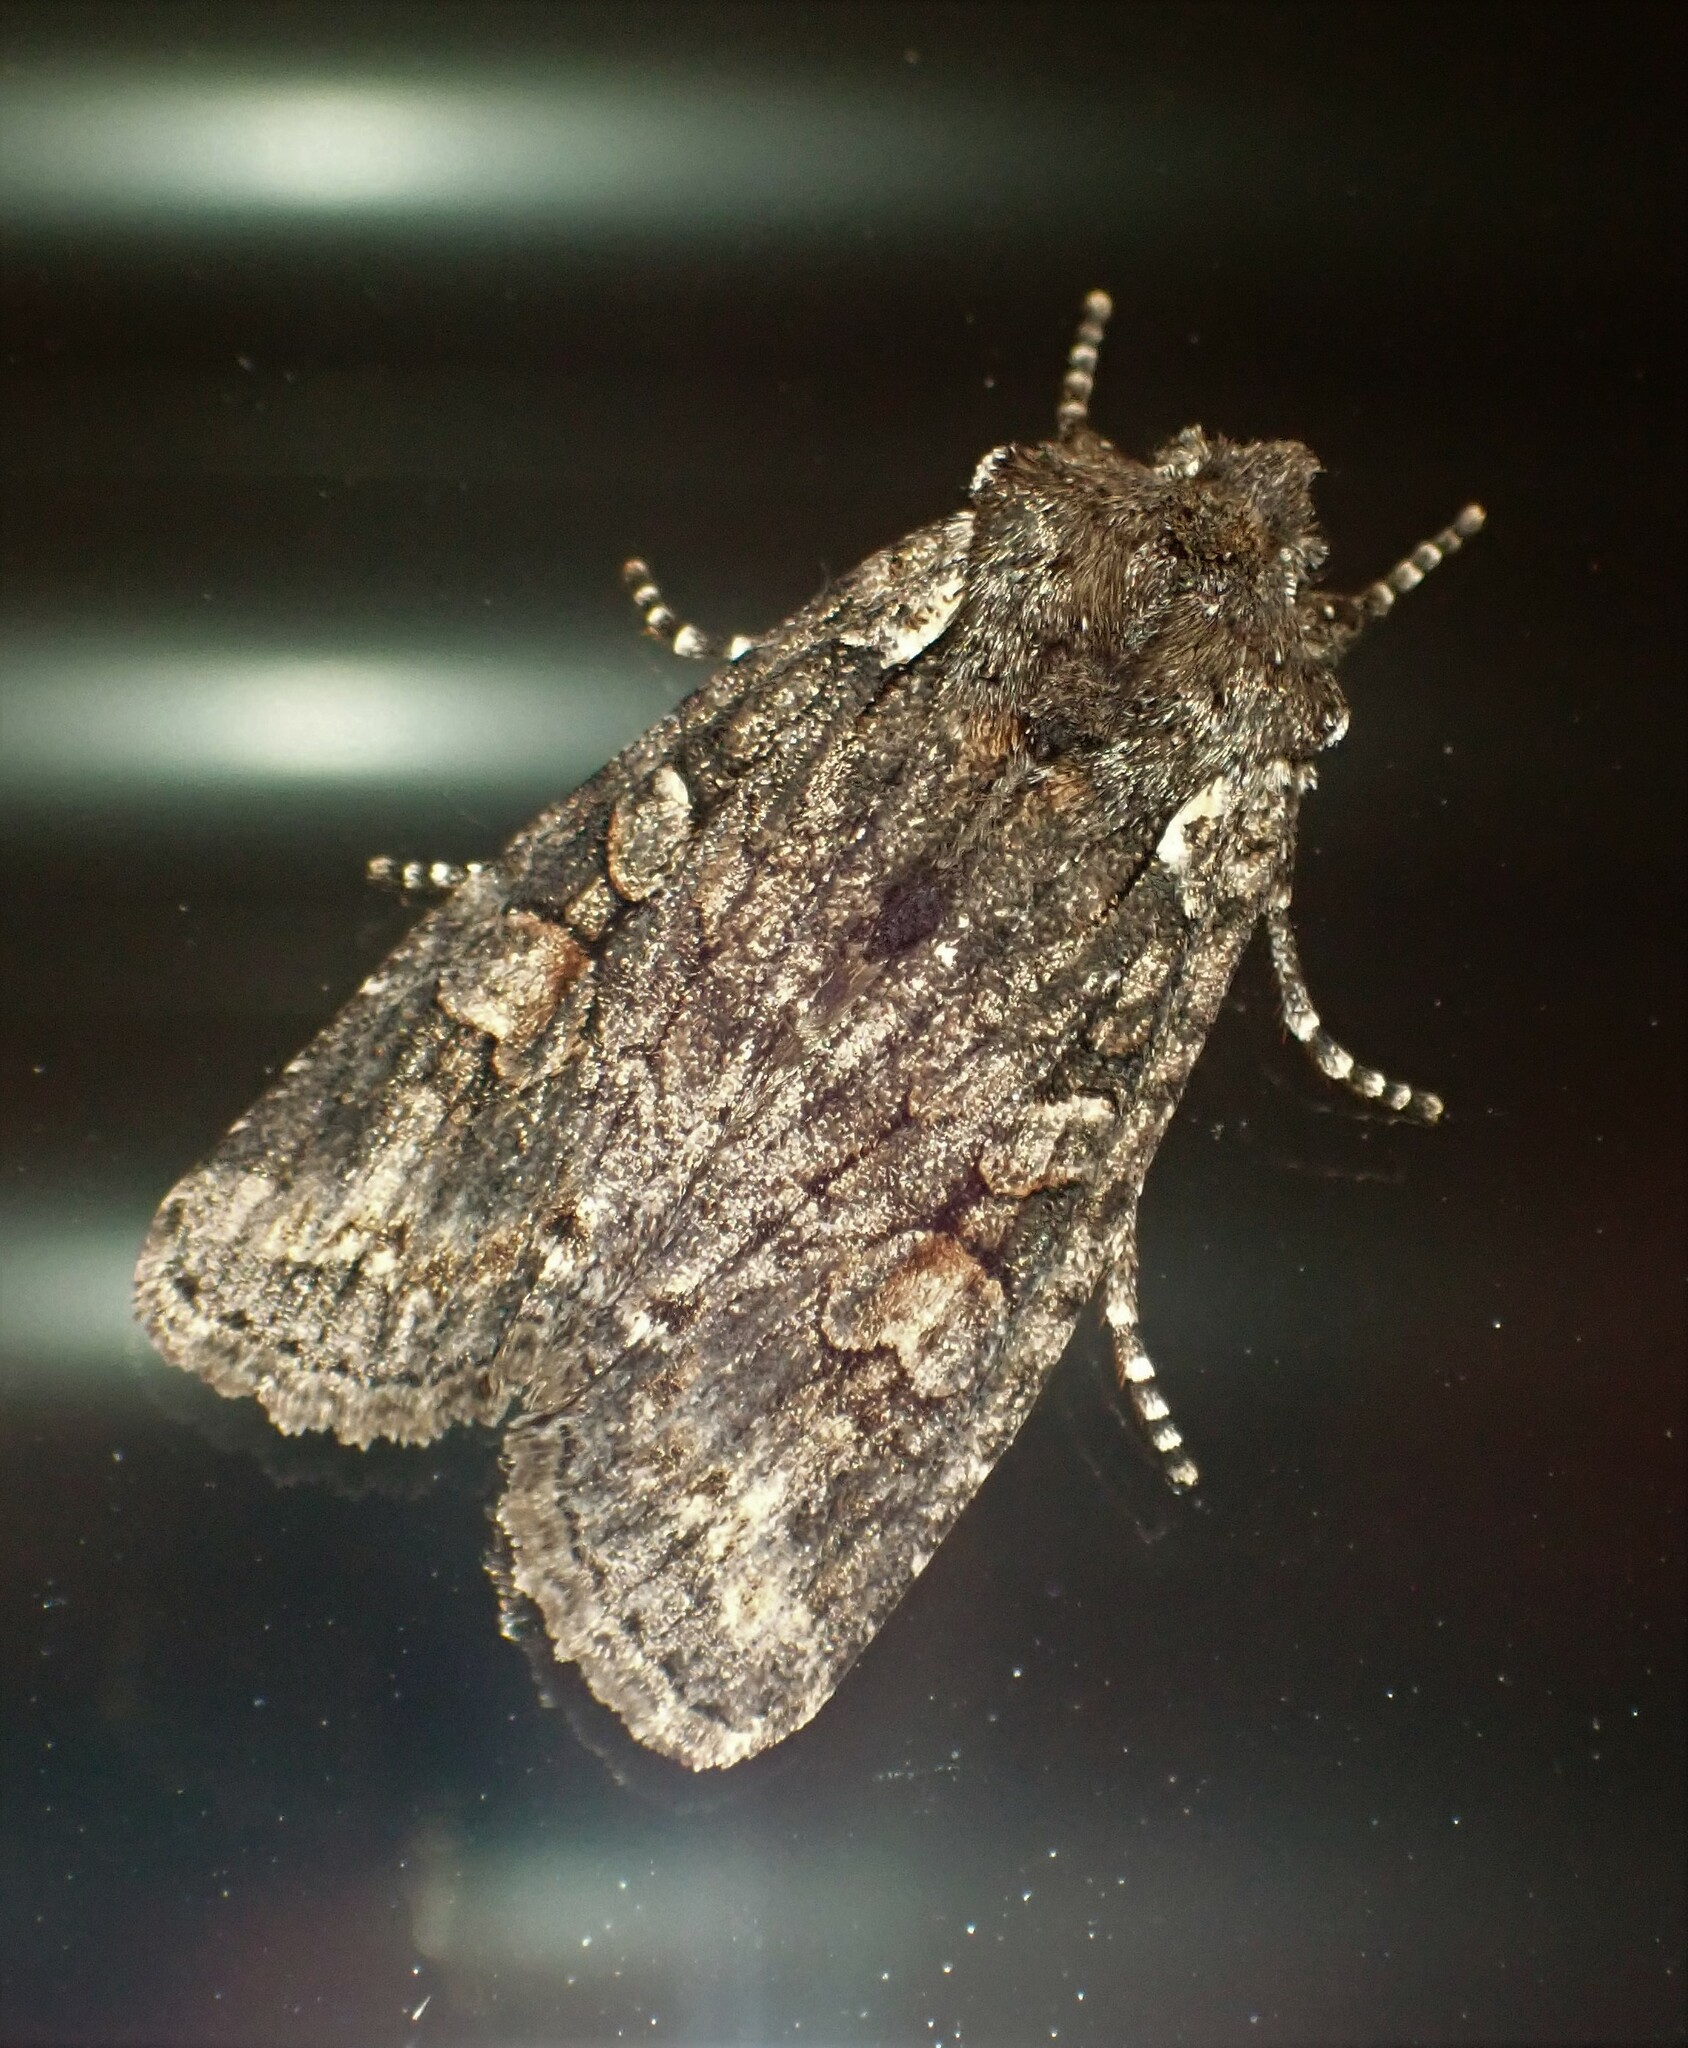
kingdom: Animalia
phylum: Arthropoda
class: Insecta
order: Lepidoptera
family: Noctuidae
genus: Lithophane
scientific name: Lithophane pexata
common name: Plush-naped pinion moth
